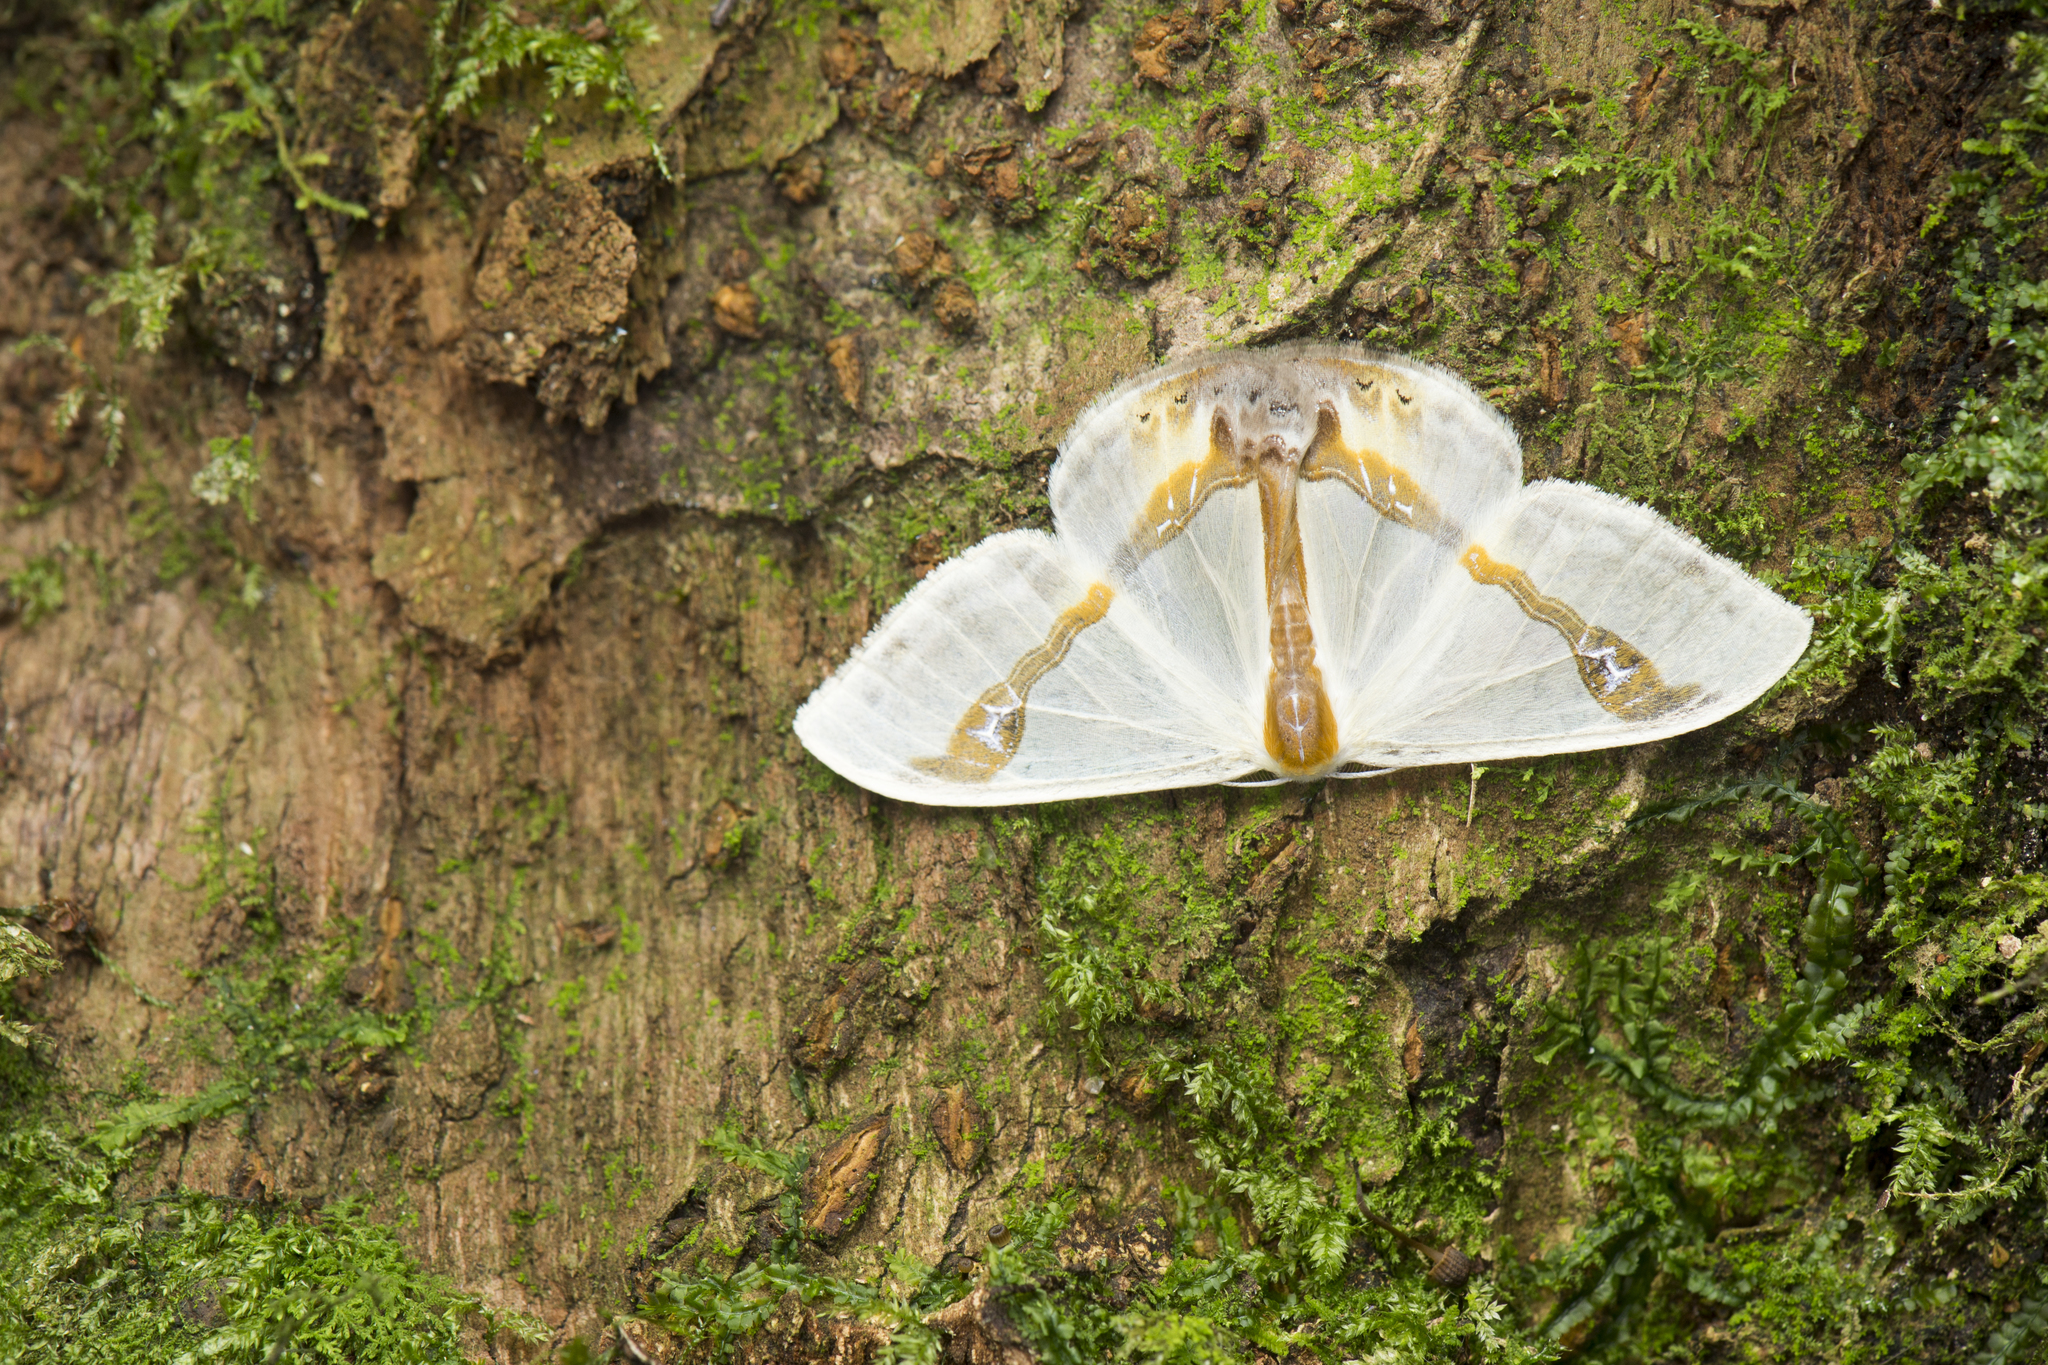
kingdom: Animalia
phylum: Arthropoda
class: Insecta
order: Lepidoptera
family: Drepanidae
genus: Macrocilix
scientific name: Macrocilix mysticata
